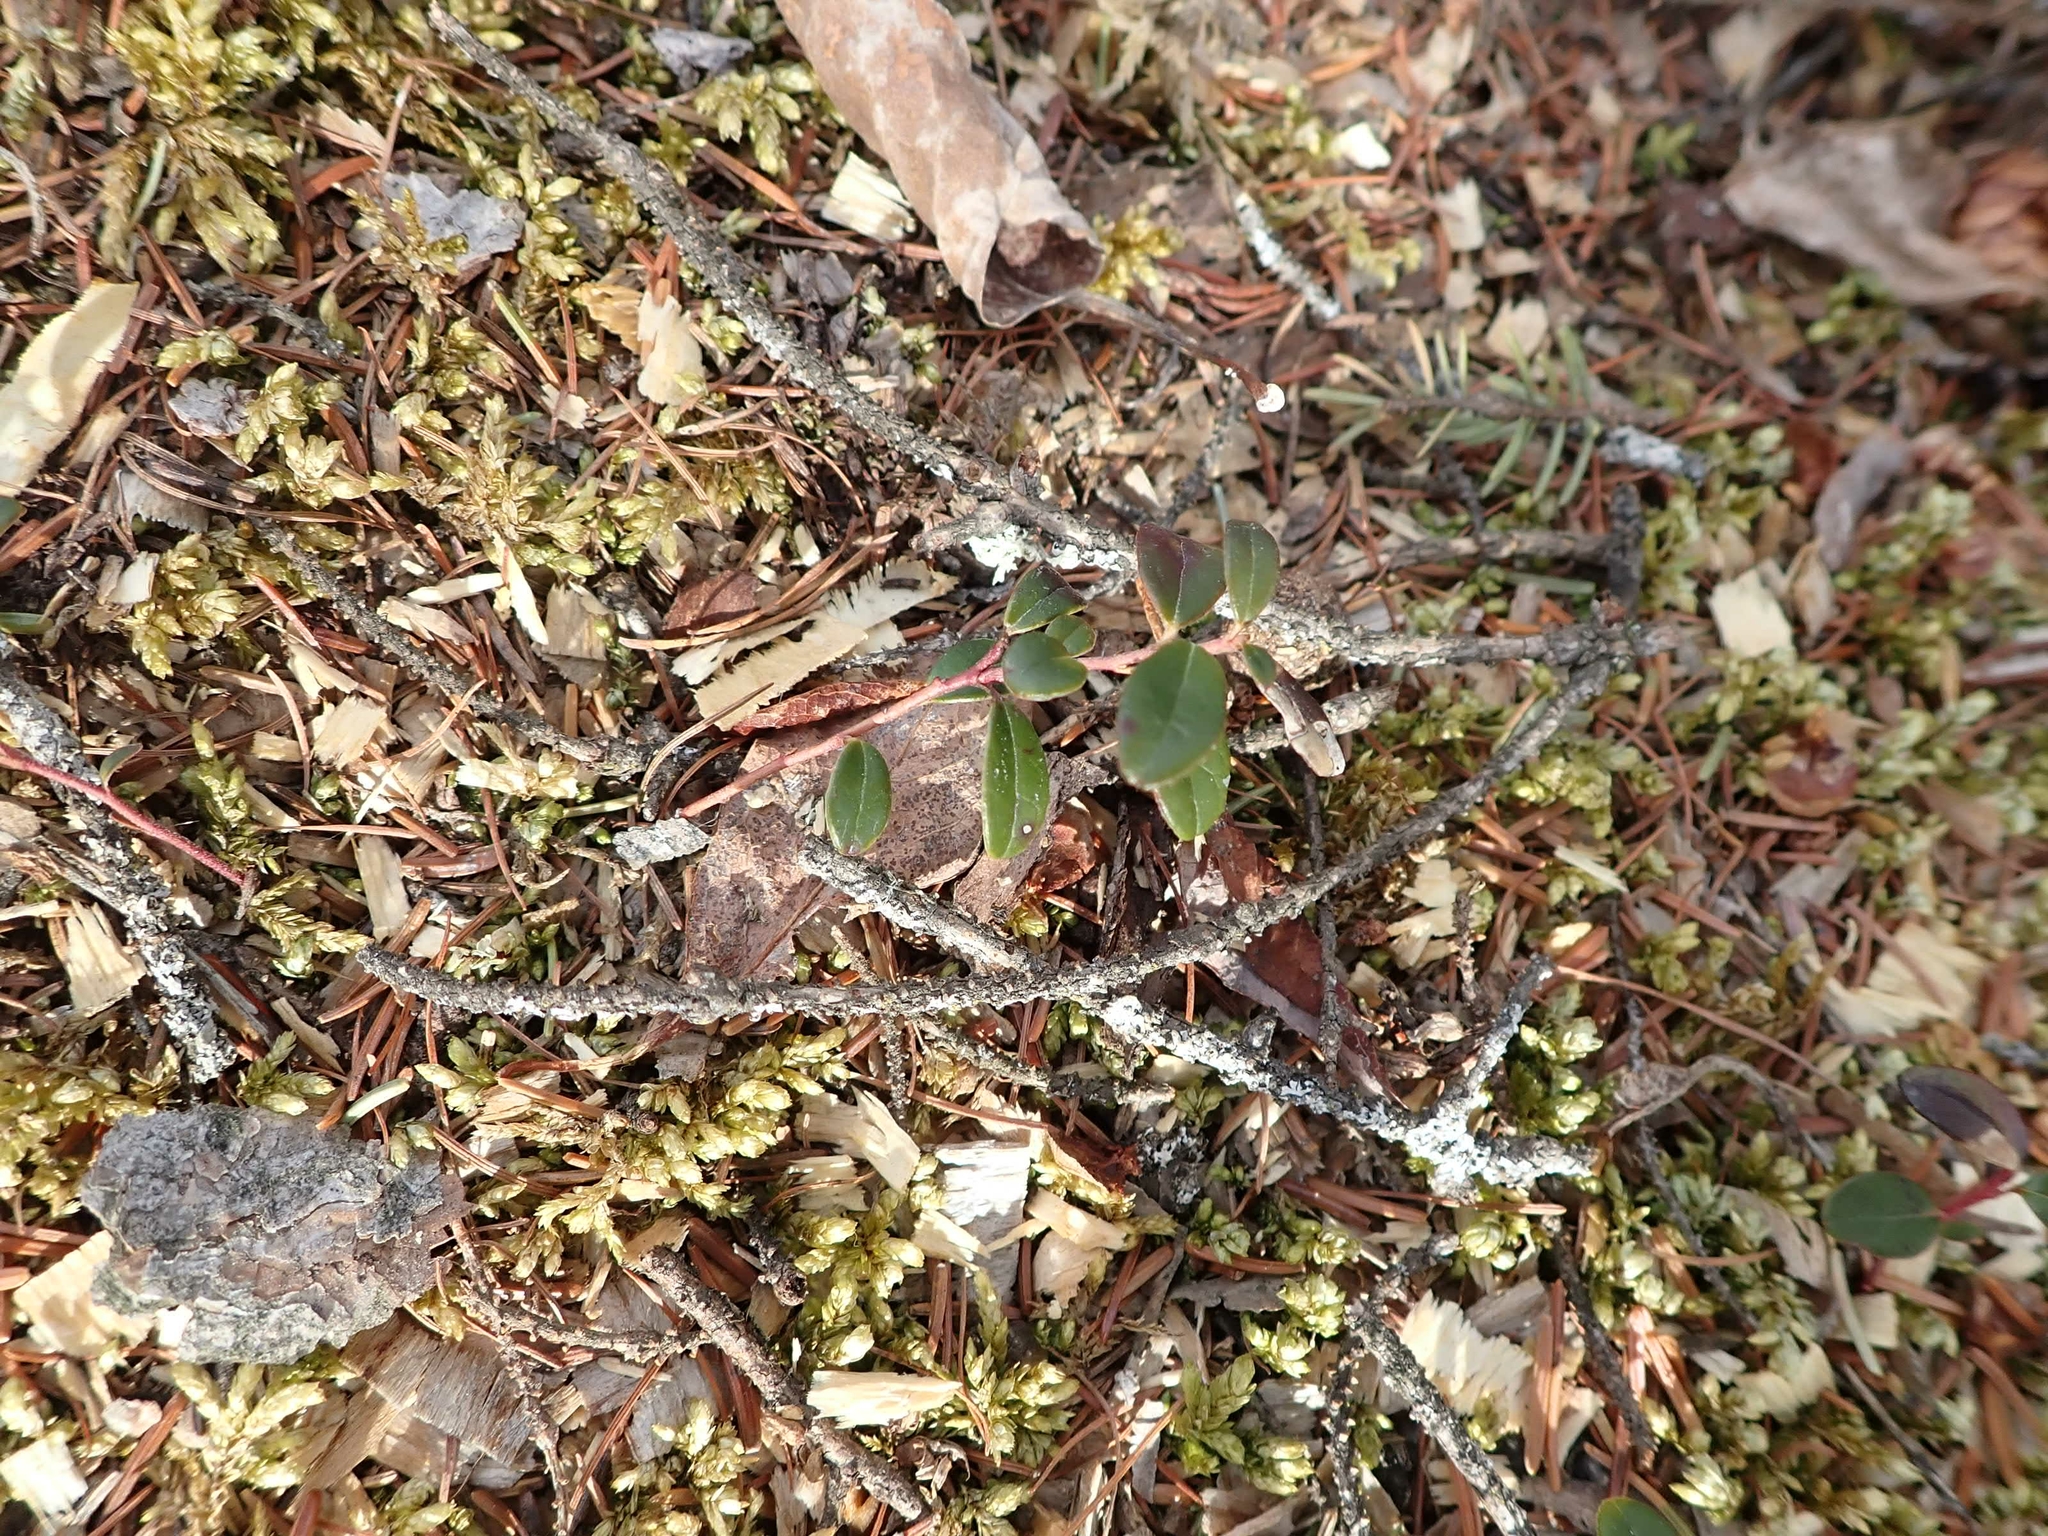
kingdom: Plantae
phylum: Tracheophyta
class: Magnoliopsida
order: Ericales
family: Ericaceae
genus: Vaccinium
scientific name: Vaccinium vitis-idaea
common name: Cowberry
